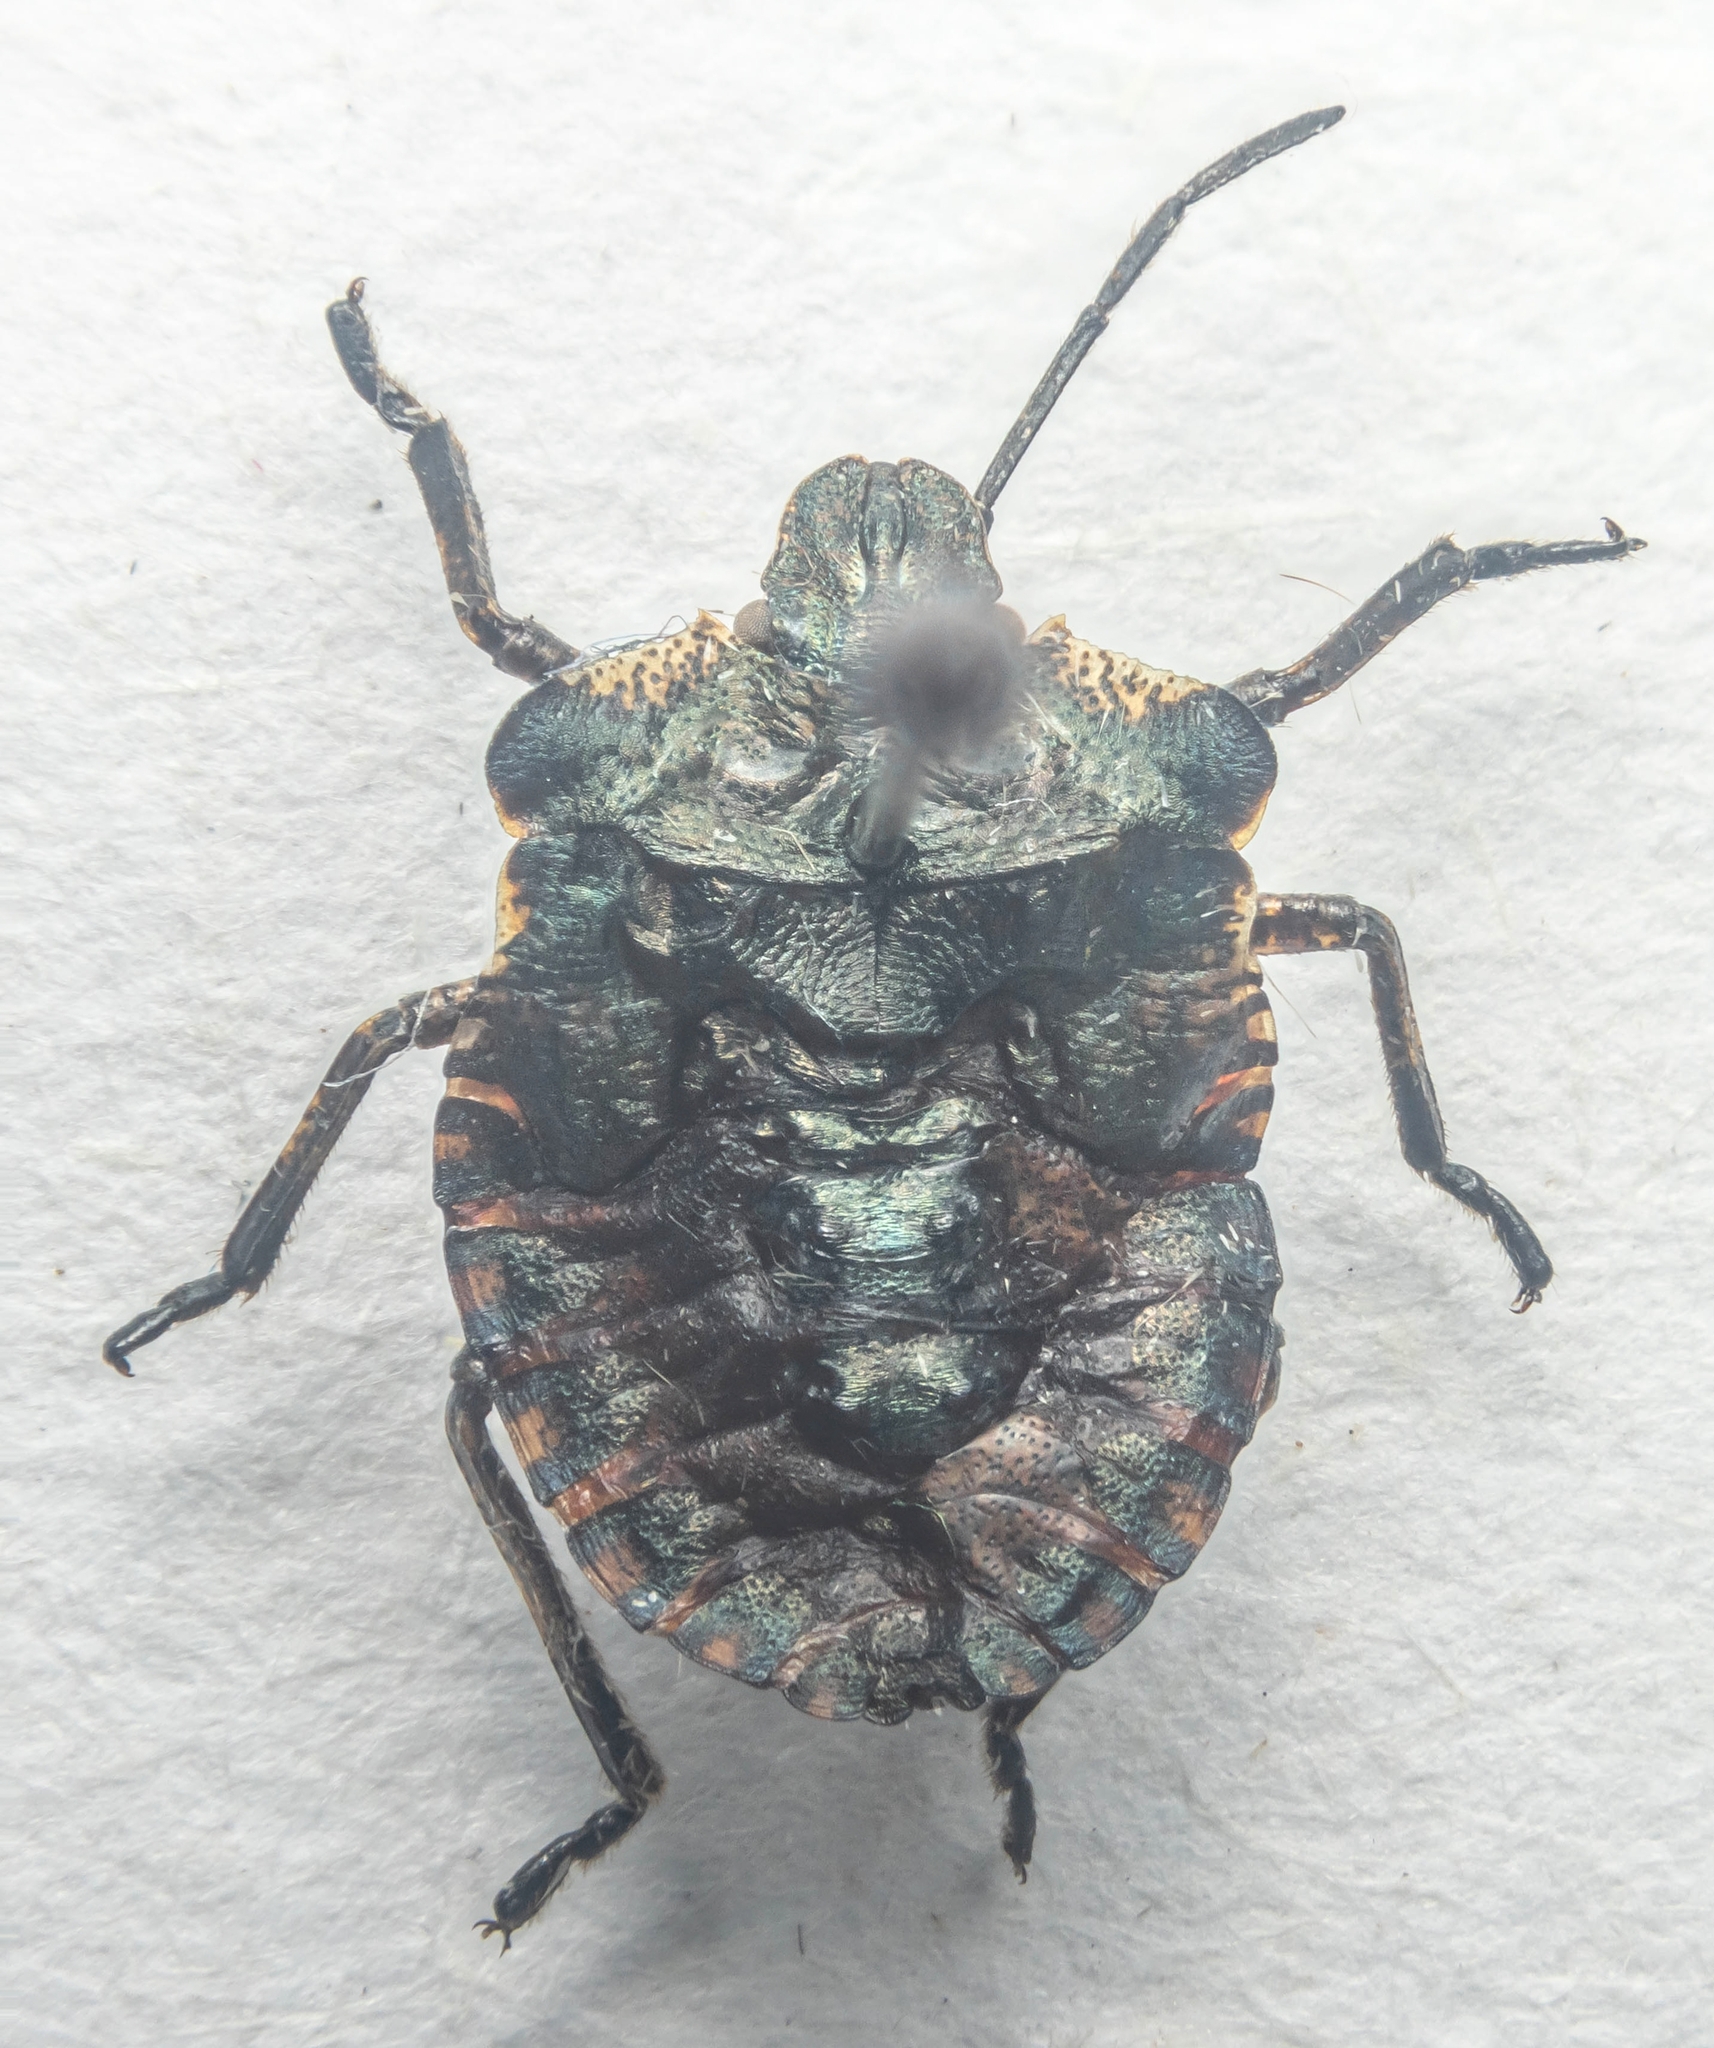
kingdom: Animalia
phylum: Arthropoda
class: Insecta
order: Hemiptera
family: Pentatomidae
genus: Pentatoma
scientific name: Pentatoma rufipes
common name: Forest bug
